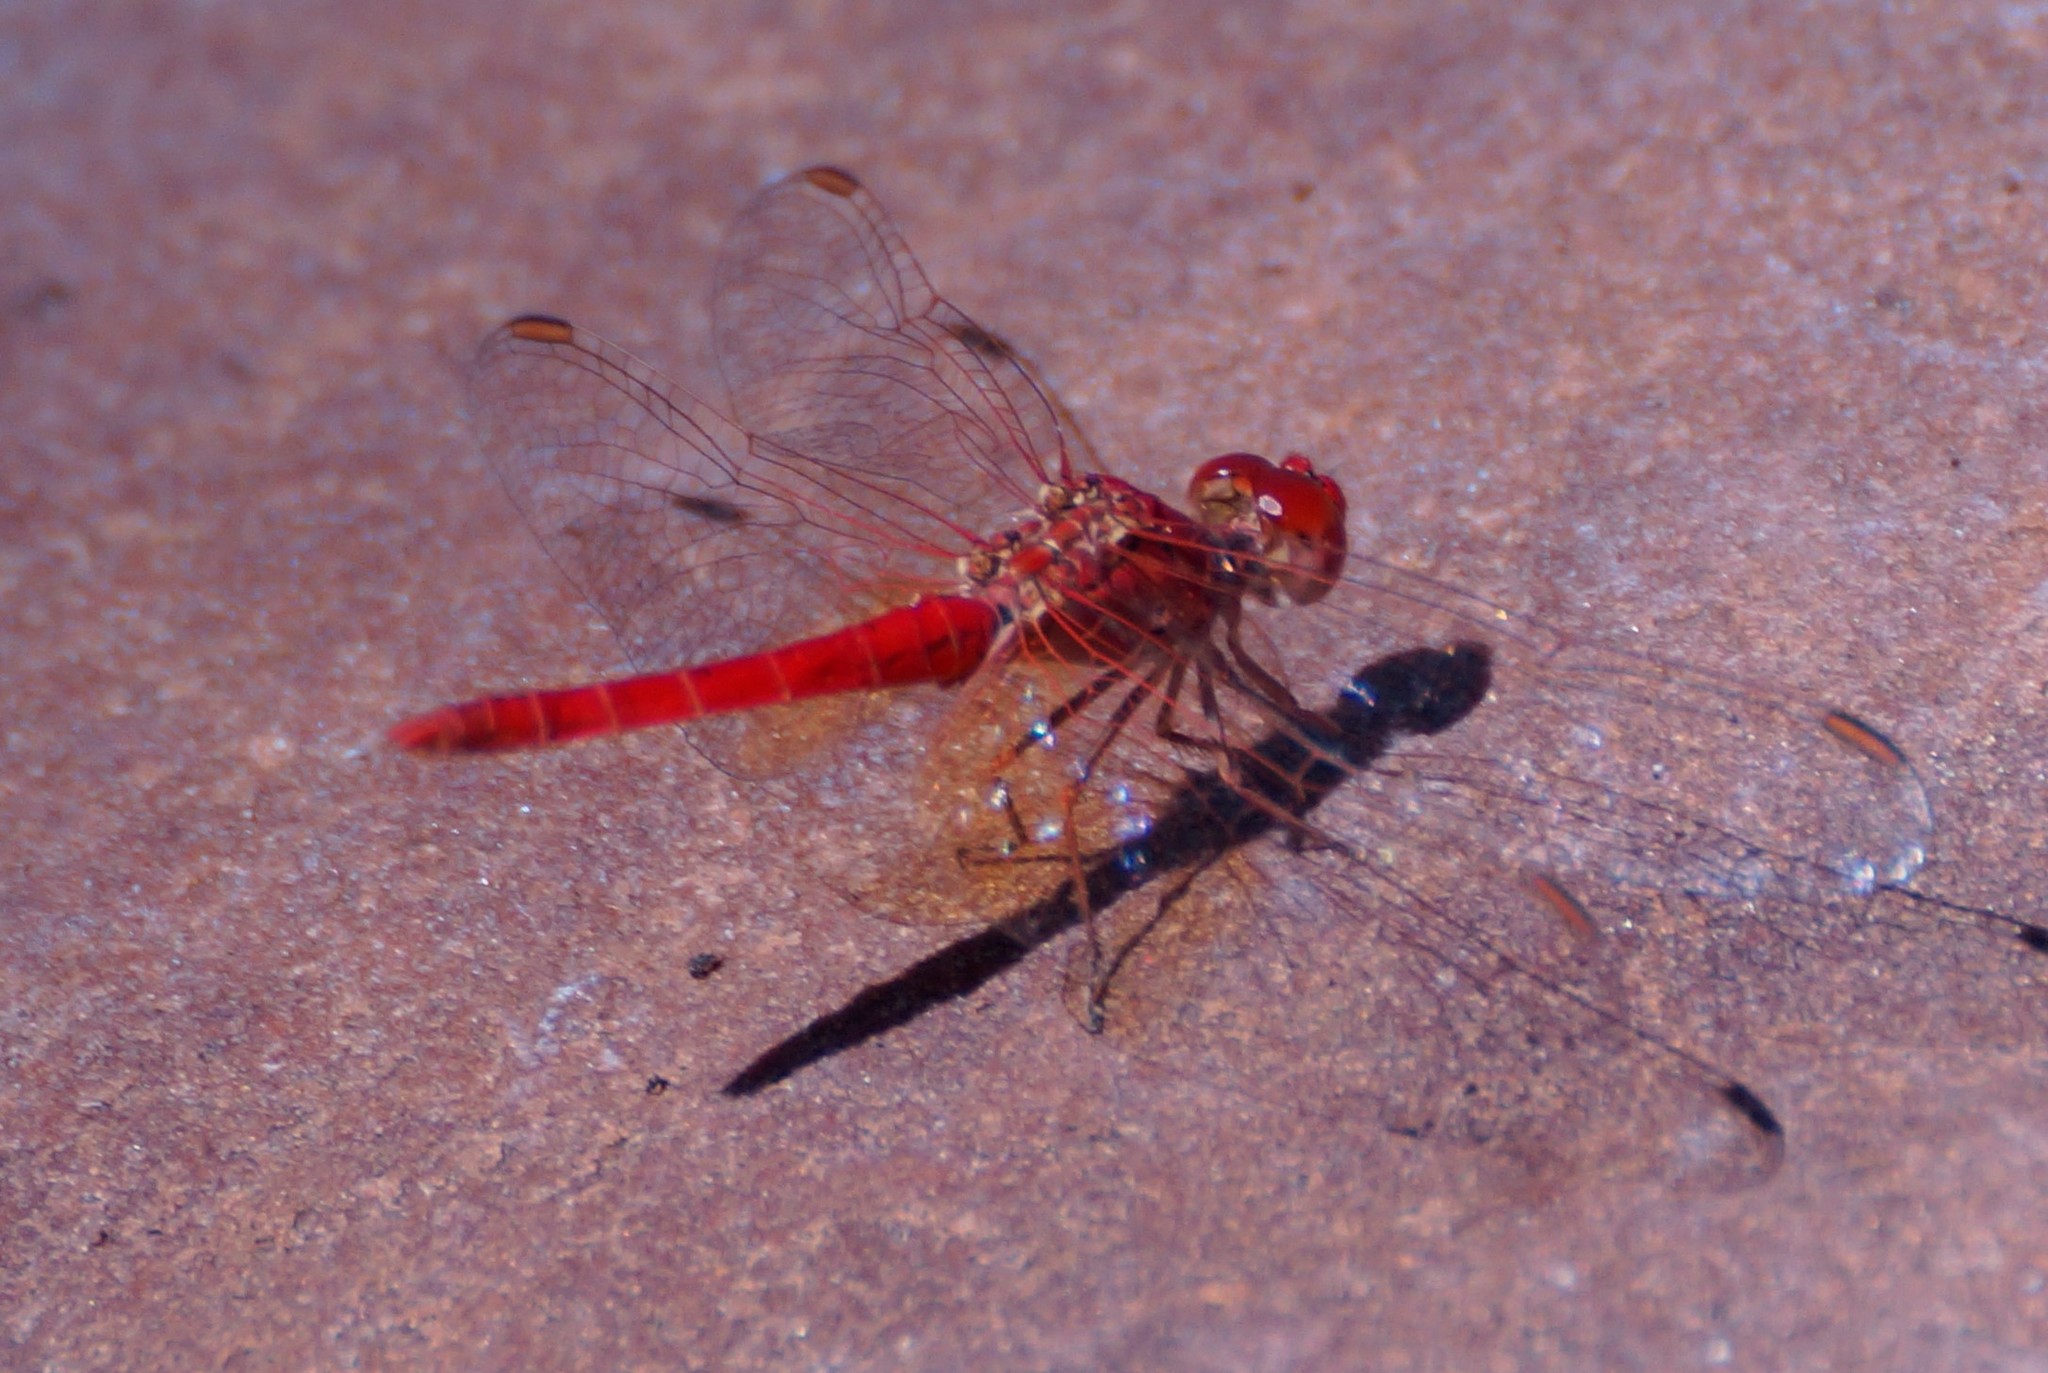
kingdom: Animalia
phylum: Arthropoda
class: Insecta
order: Odonata
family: Libellulidae
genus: Diplacodes
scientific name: Diplacodes haematodes
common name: Scarlet percher
